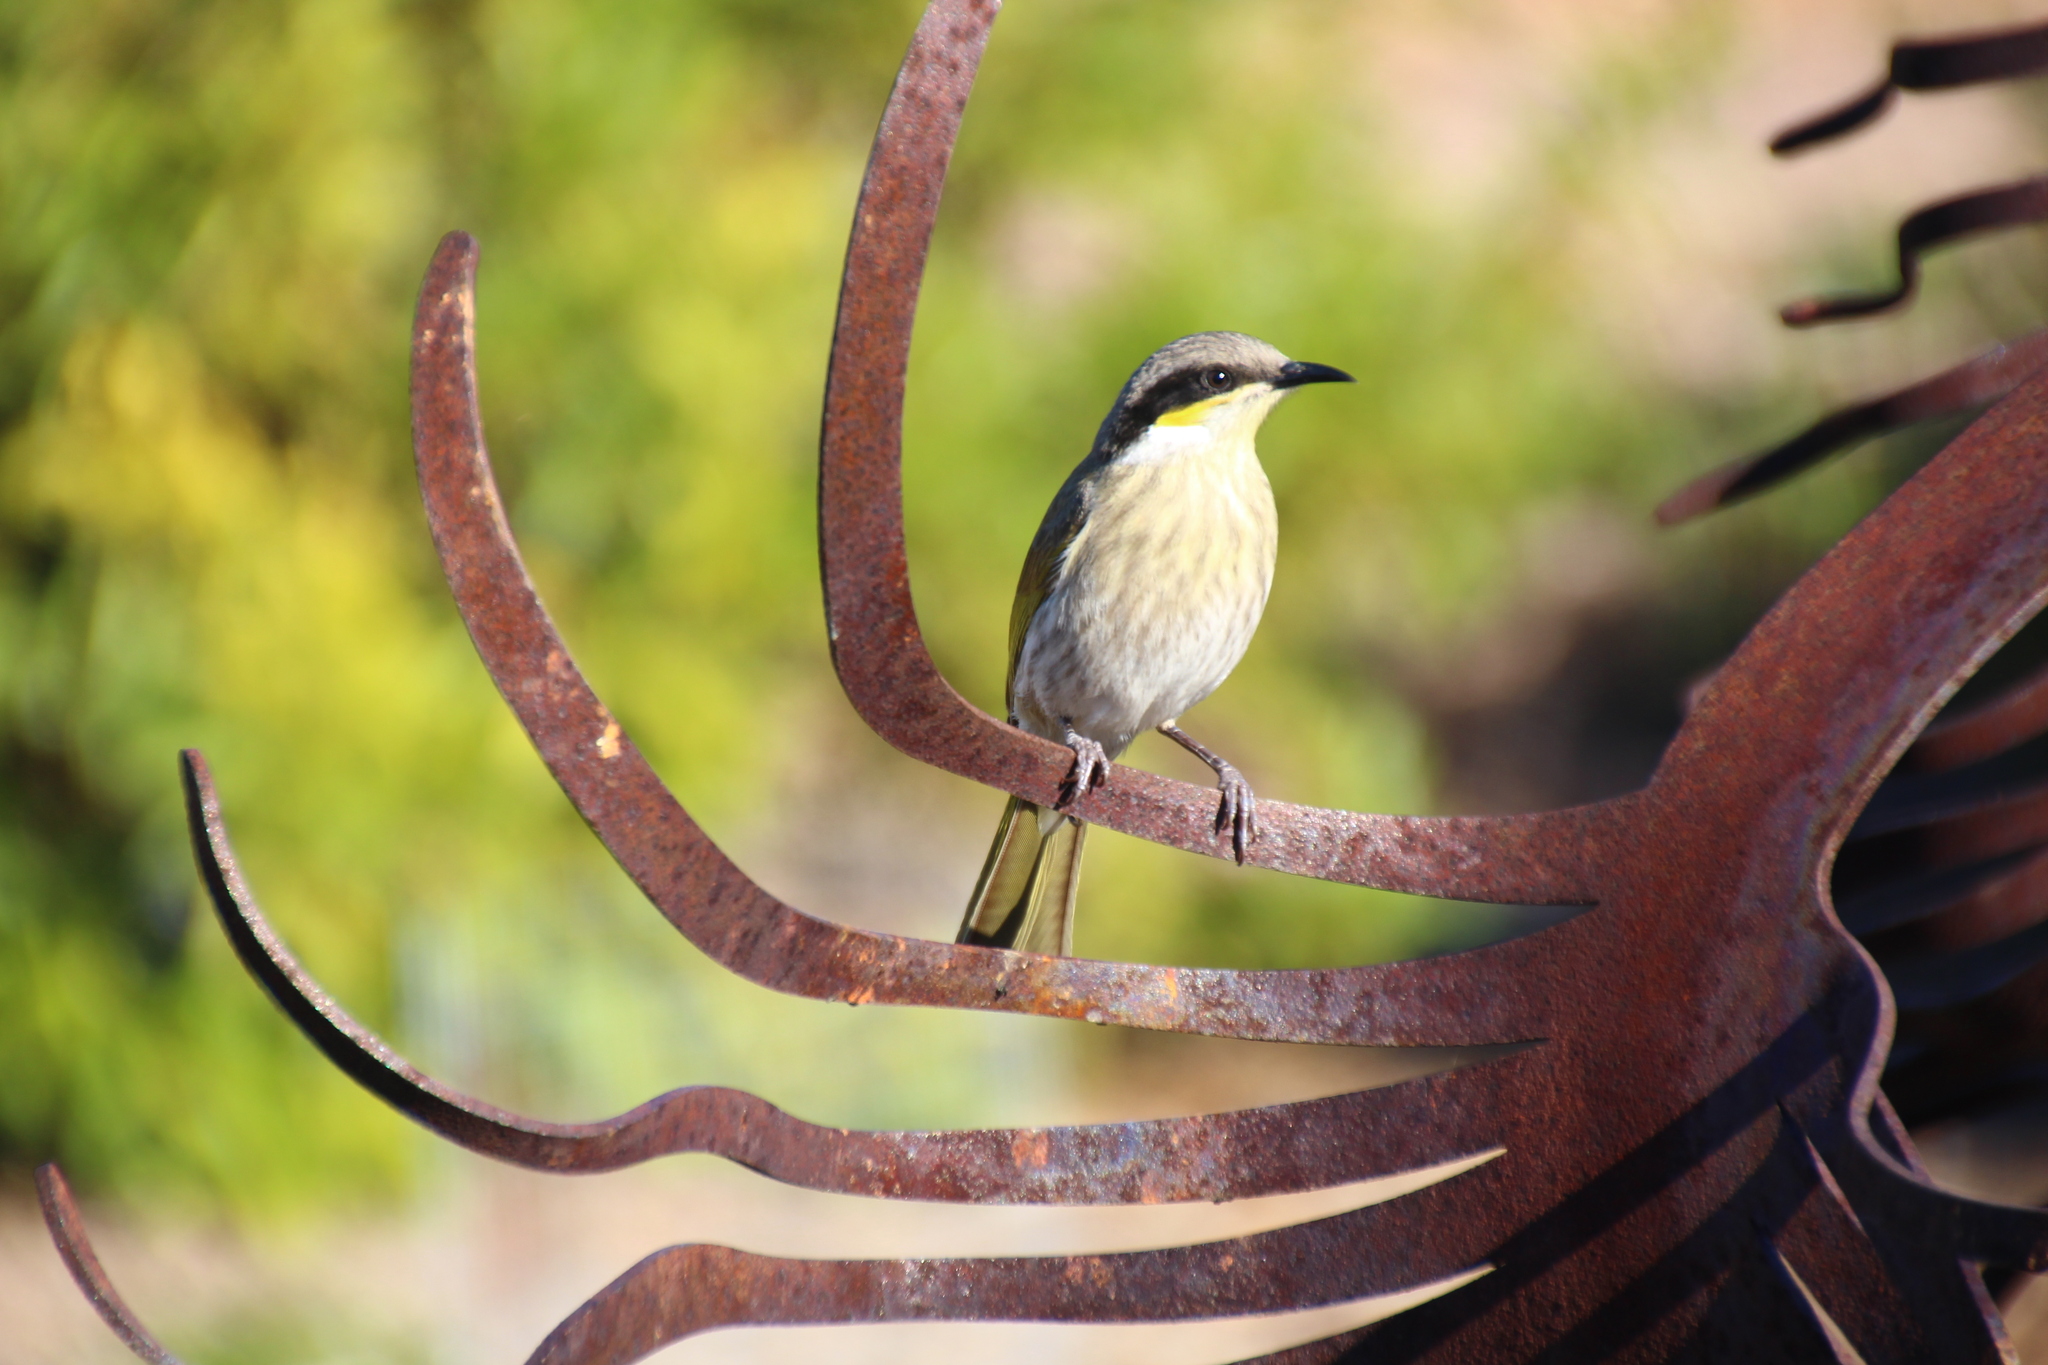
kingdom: Animalia
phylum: Chordata
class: Aves
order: Passeriformes
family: Meliphagidae
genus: Gavicalis
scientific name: Gavicalis virescens
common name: Singing honeyeater
